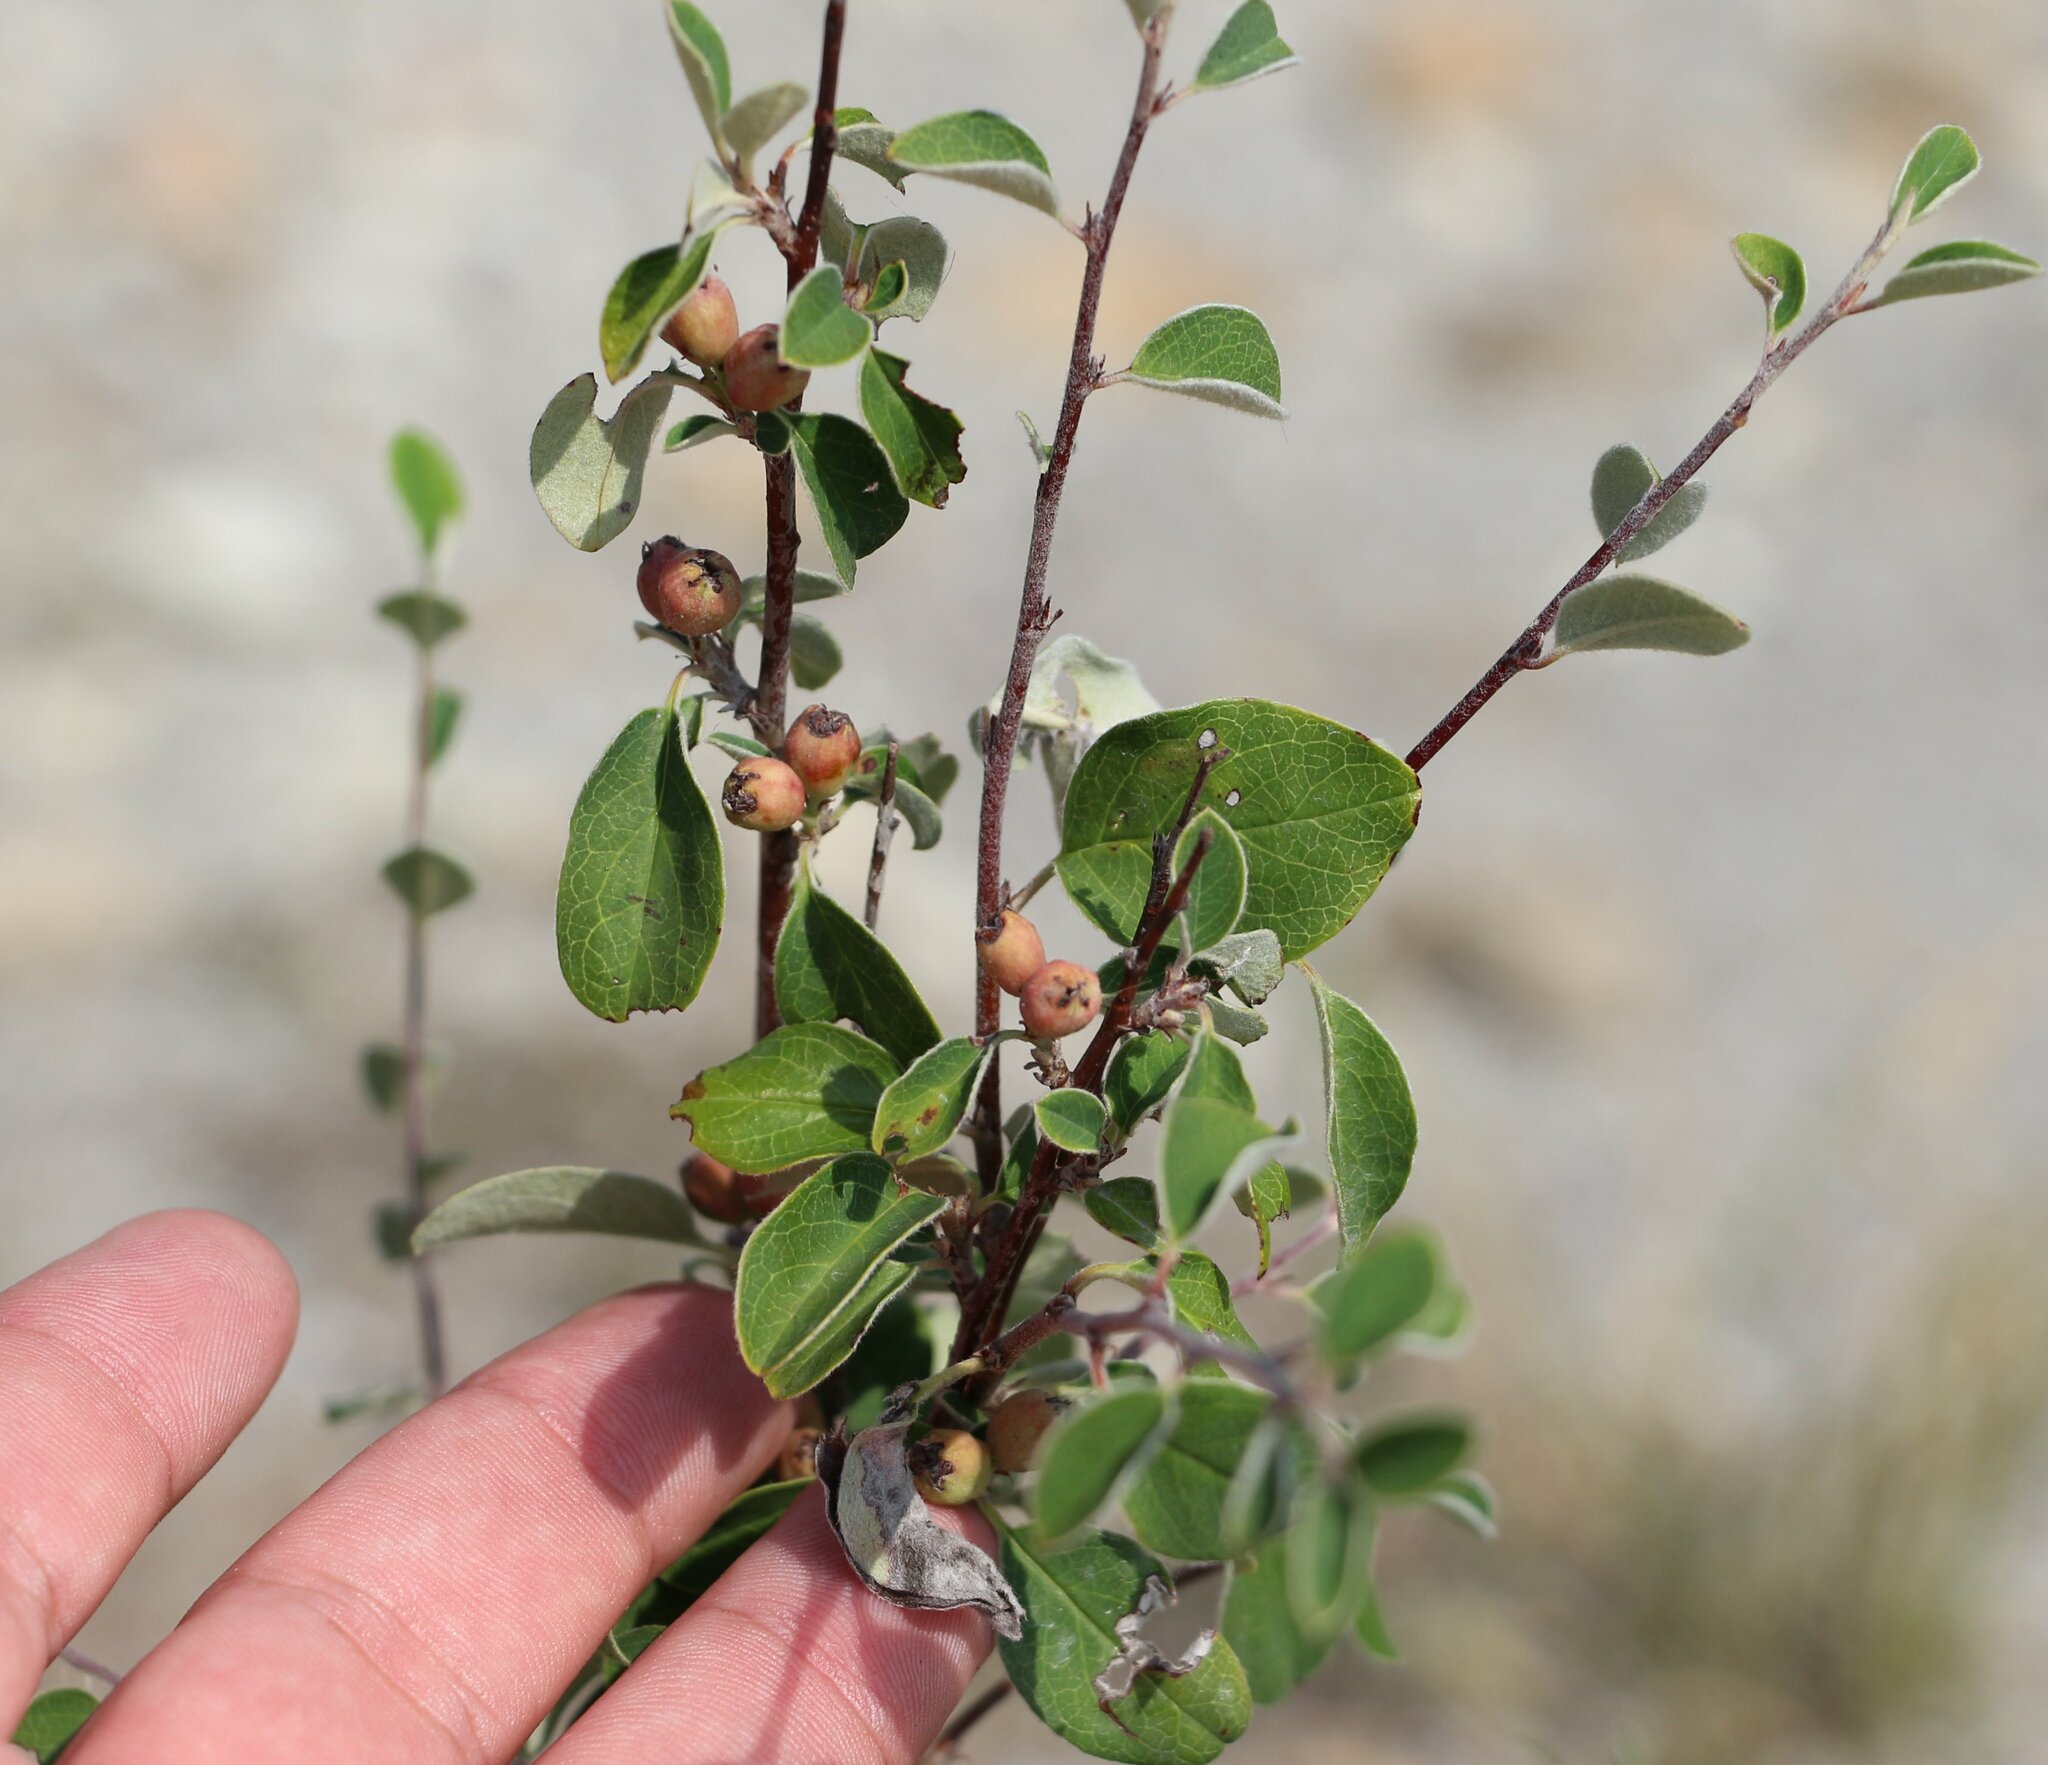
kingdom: Plantae
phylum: Tracheophyta
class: Magnoliopsida
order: Rosales
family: Rosaceae
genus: Cotoneaster
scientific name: Cotoneaster suavis
